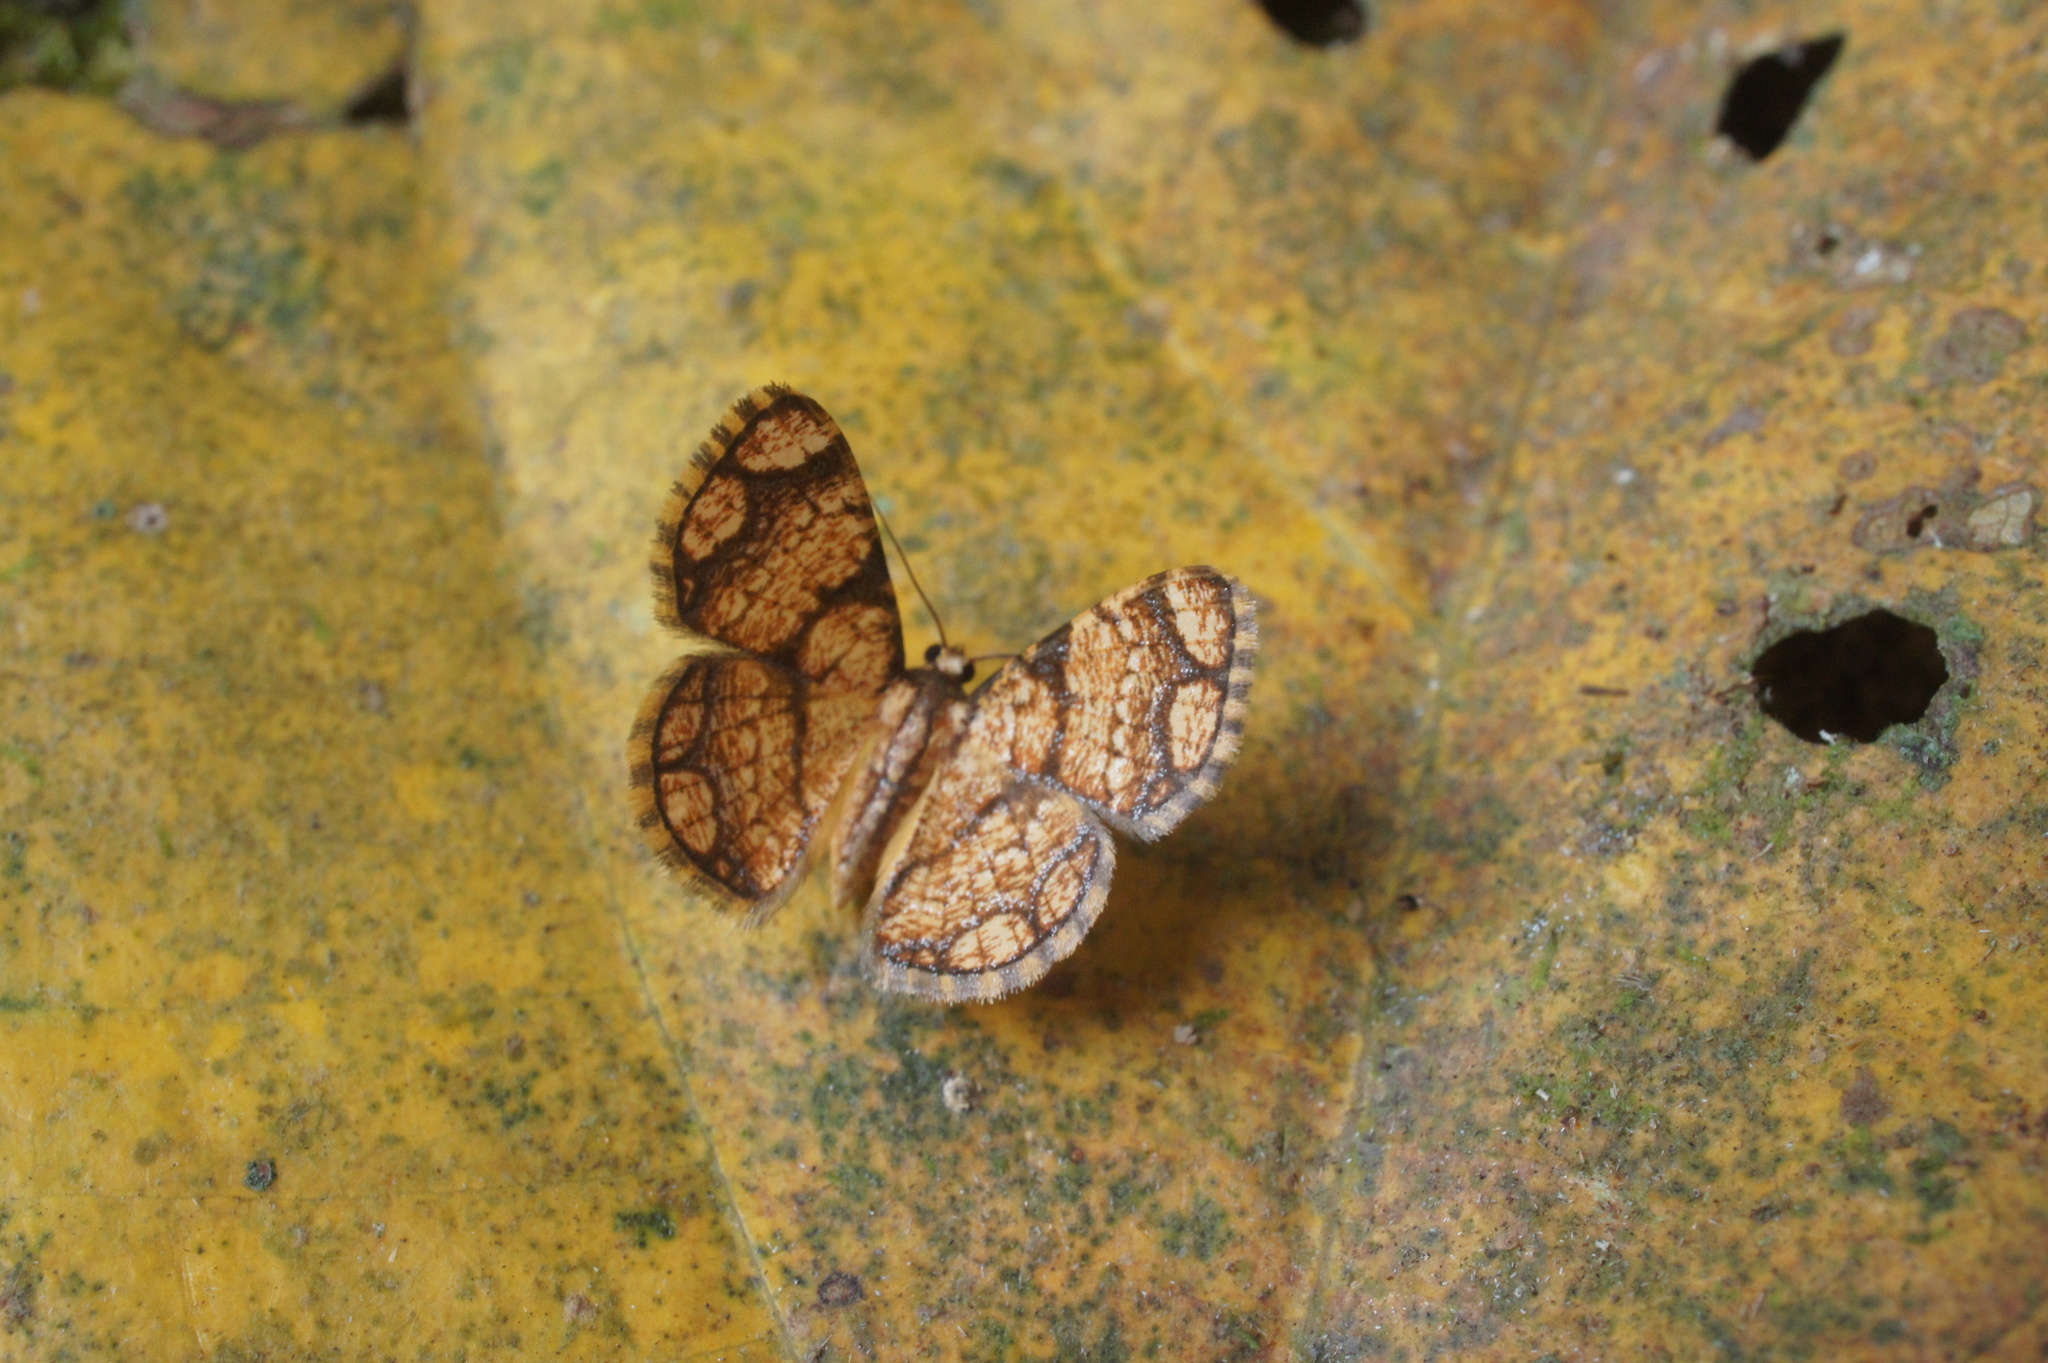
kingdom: Animalia
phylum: Arthropoda
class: Insecta
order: Lepidoptera
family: Geometridae
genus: Heterostegane
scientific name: Heterostegane contessellata
